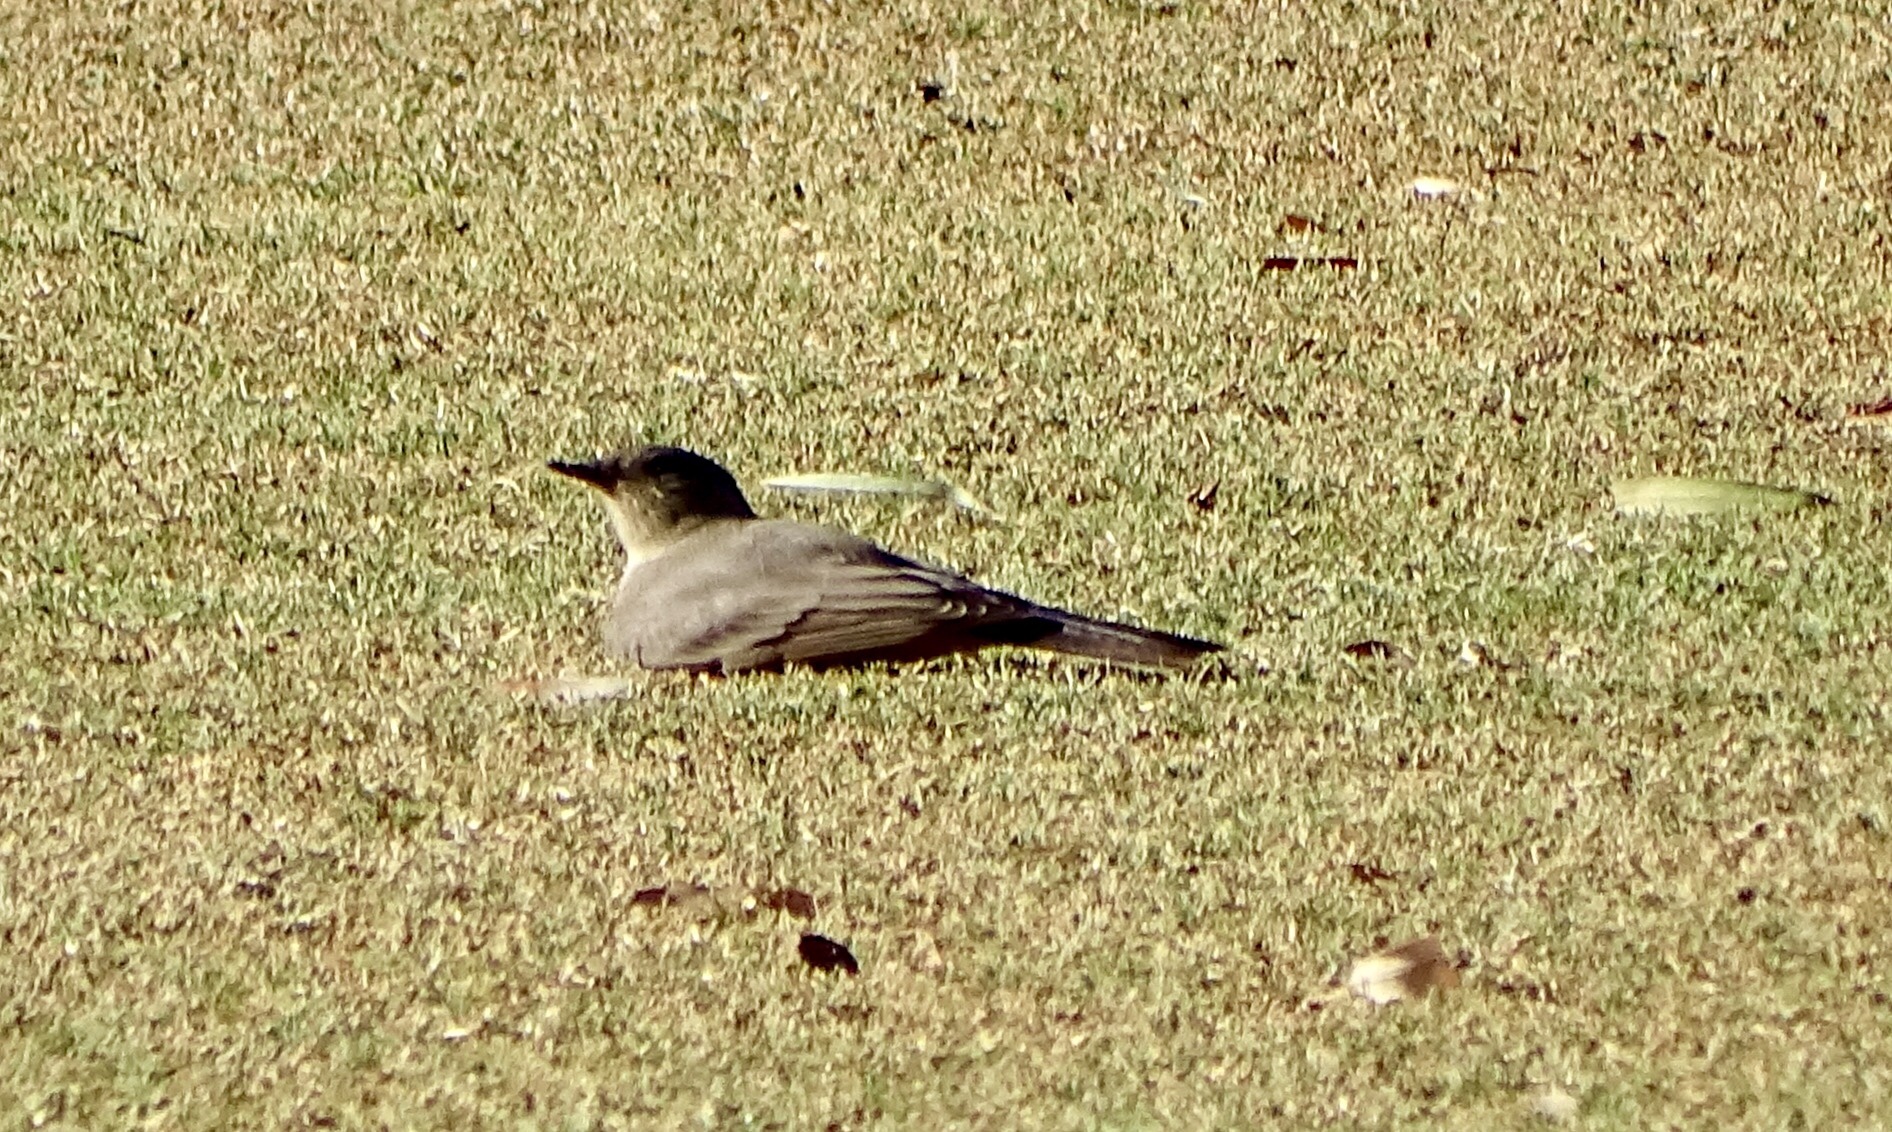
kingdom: Animalia
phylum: Chordata
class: Aves
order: Passeriformes
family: Tyrannidae
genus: Sayornis
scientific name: Sayornis saya
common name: Say's phoebe
